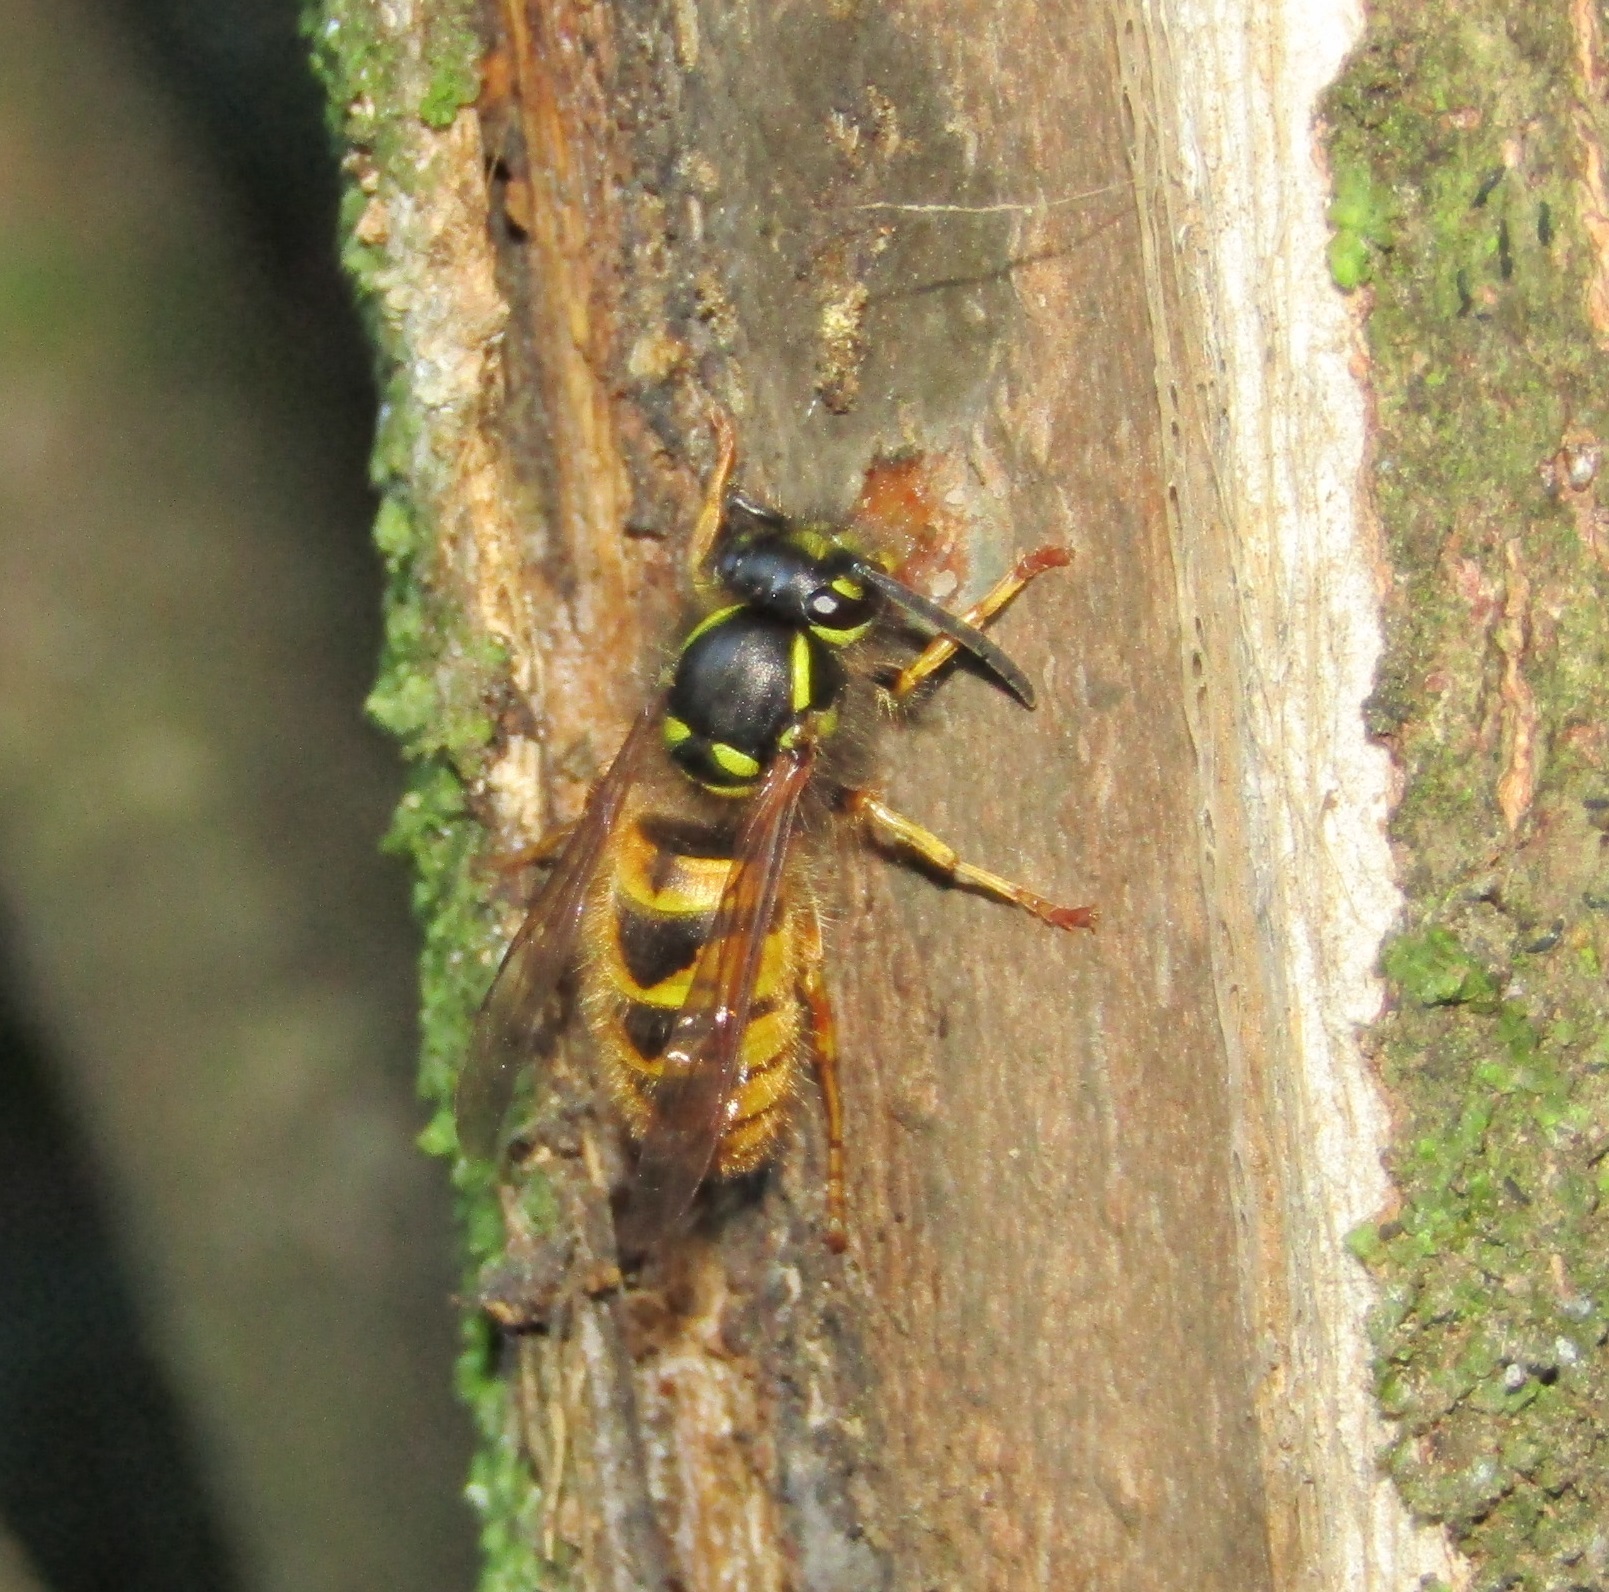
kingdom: Animalia
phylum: Arthropoda
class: Insecta
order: Hymenoptera
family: Vespidae
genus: Vespula
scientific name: Vespula vulgaris
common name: Common wasp
